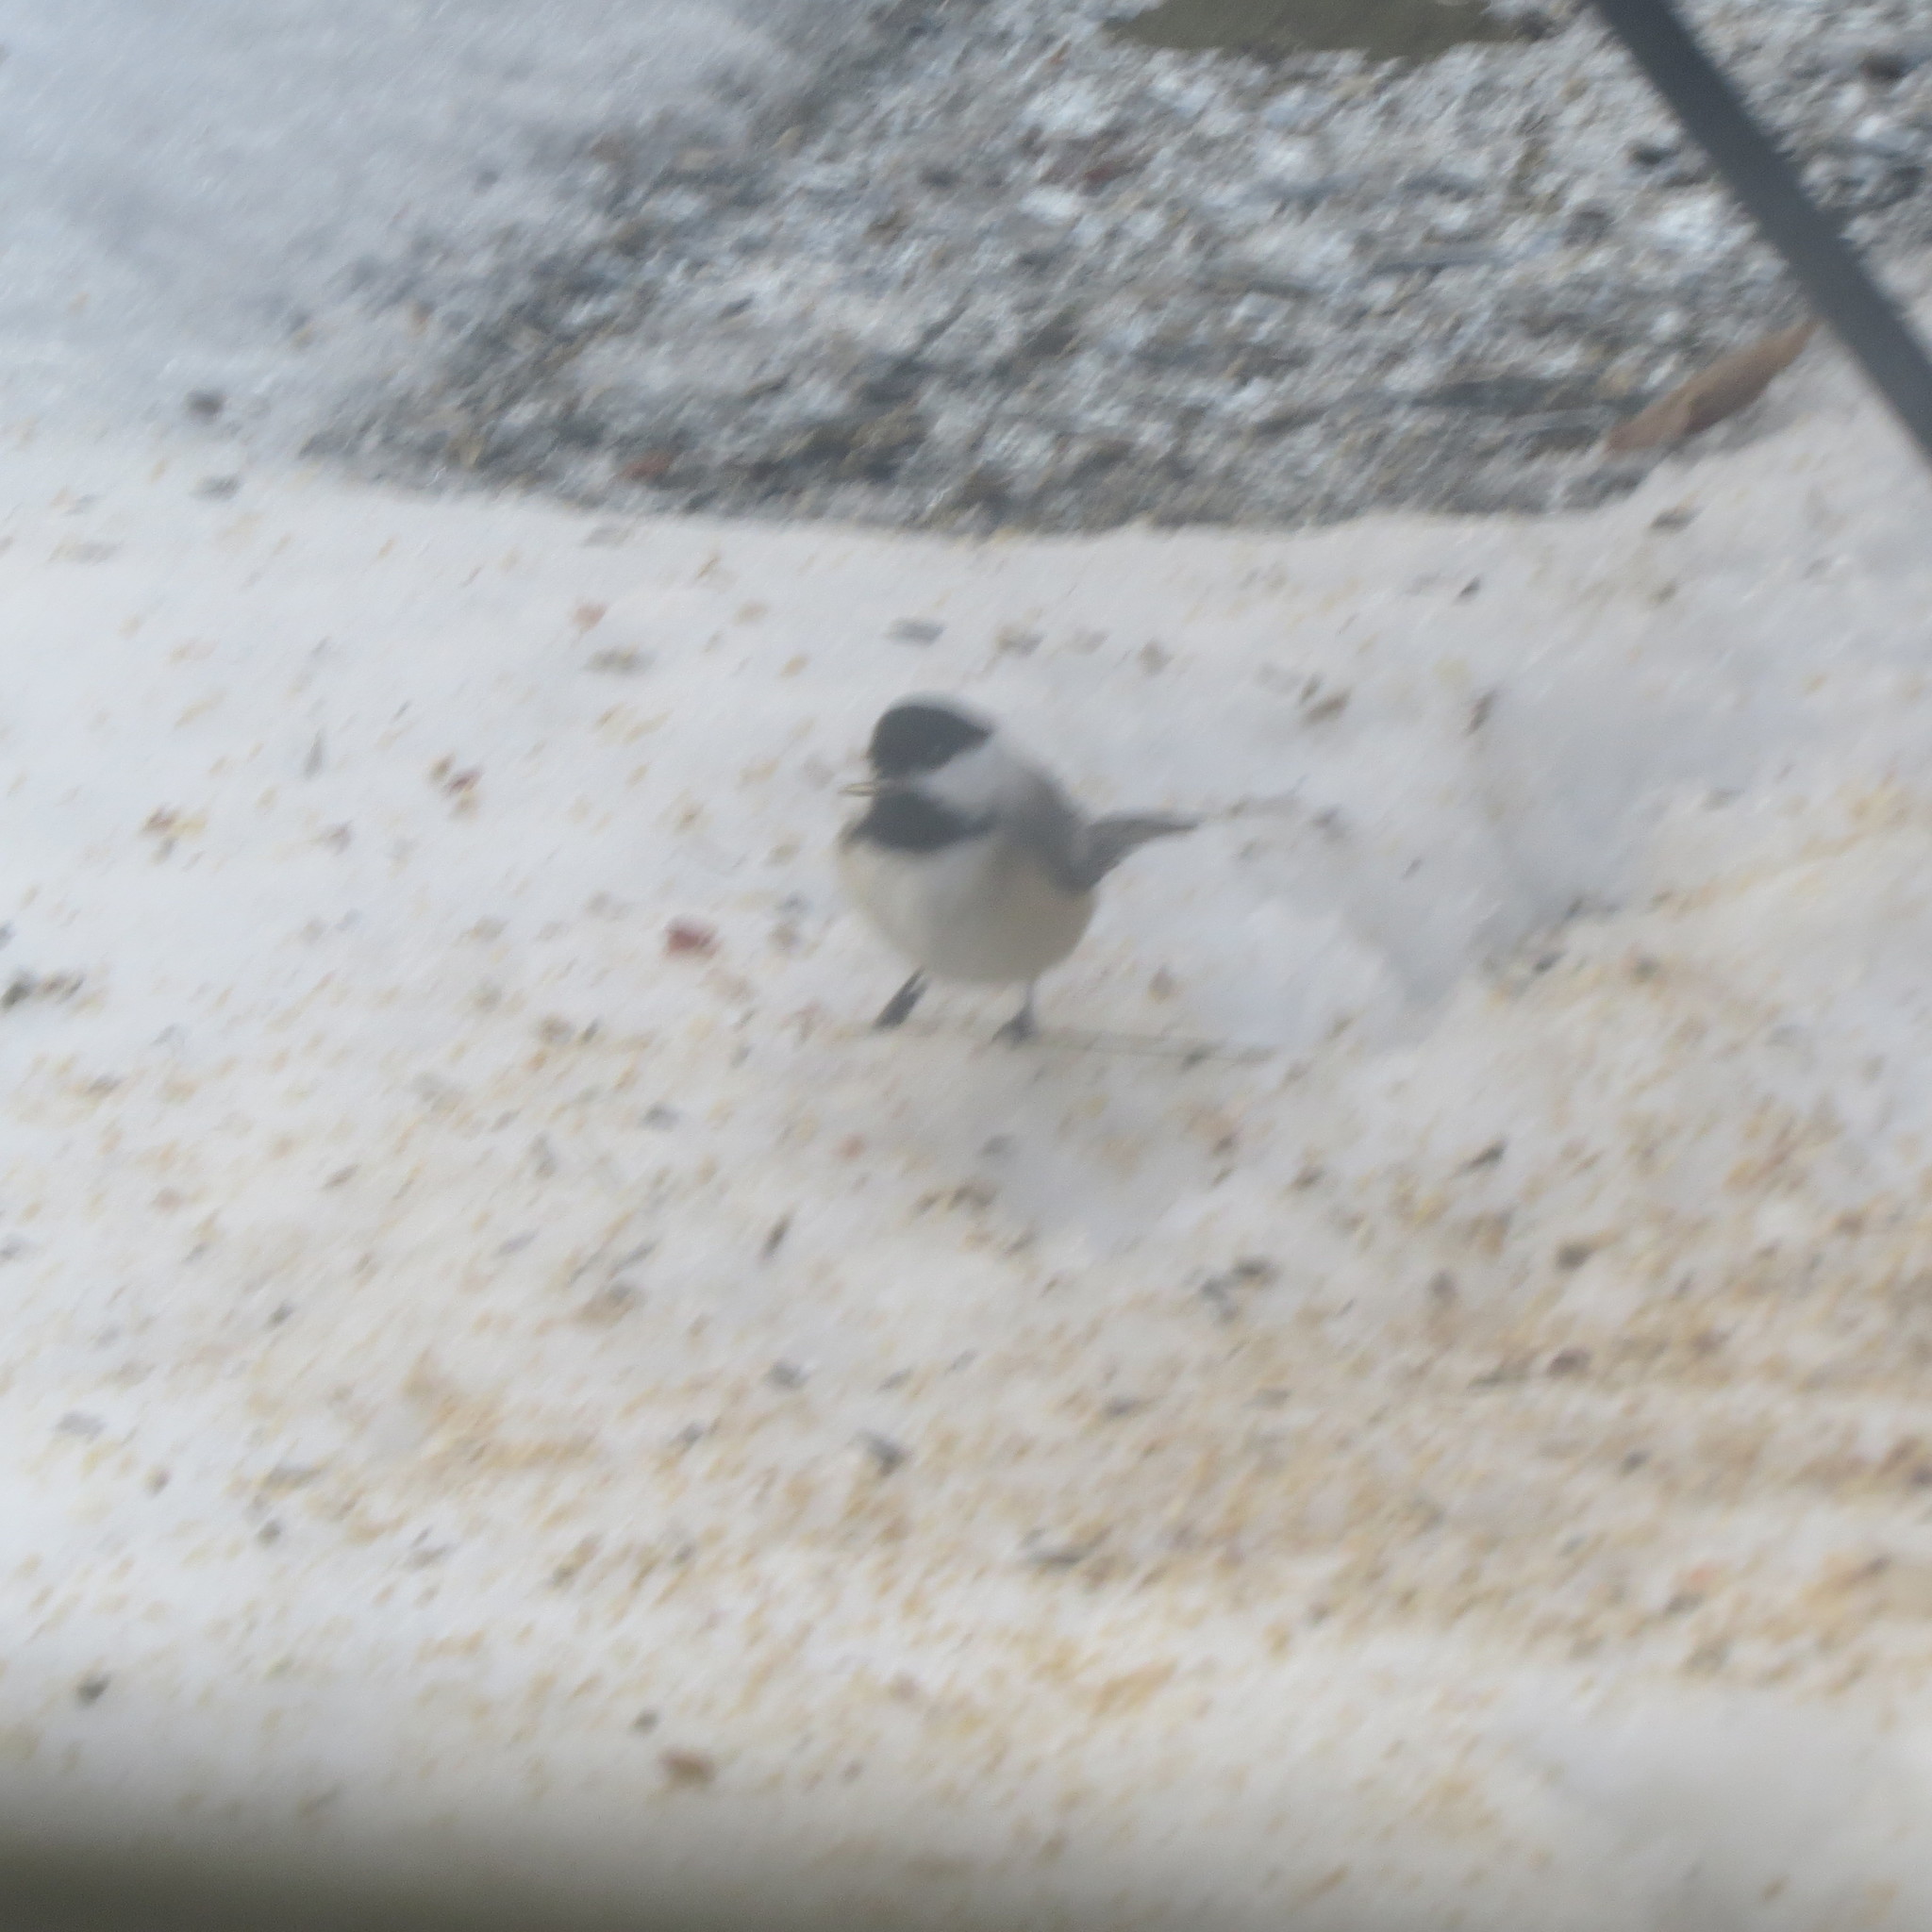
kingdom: Animalia
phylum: Chordata
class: Aves
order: Passeriformes
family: Paridae
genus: Poecile
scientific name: Poecile atricapillus
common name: Black-capped chickadee
